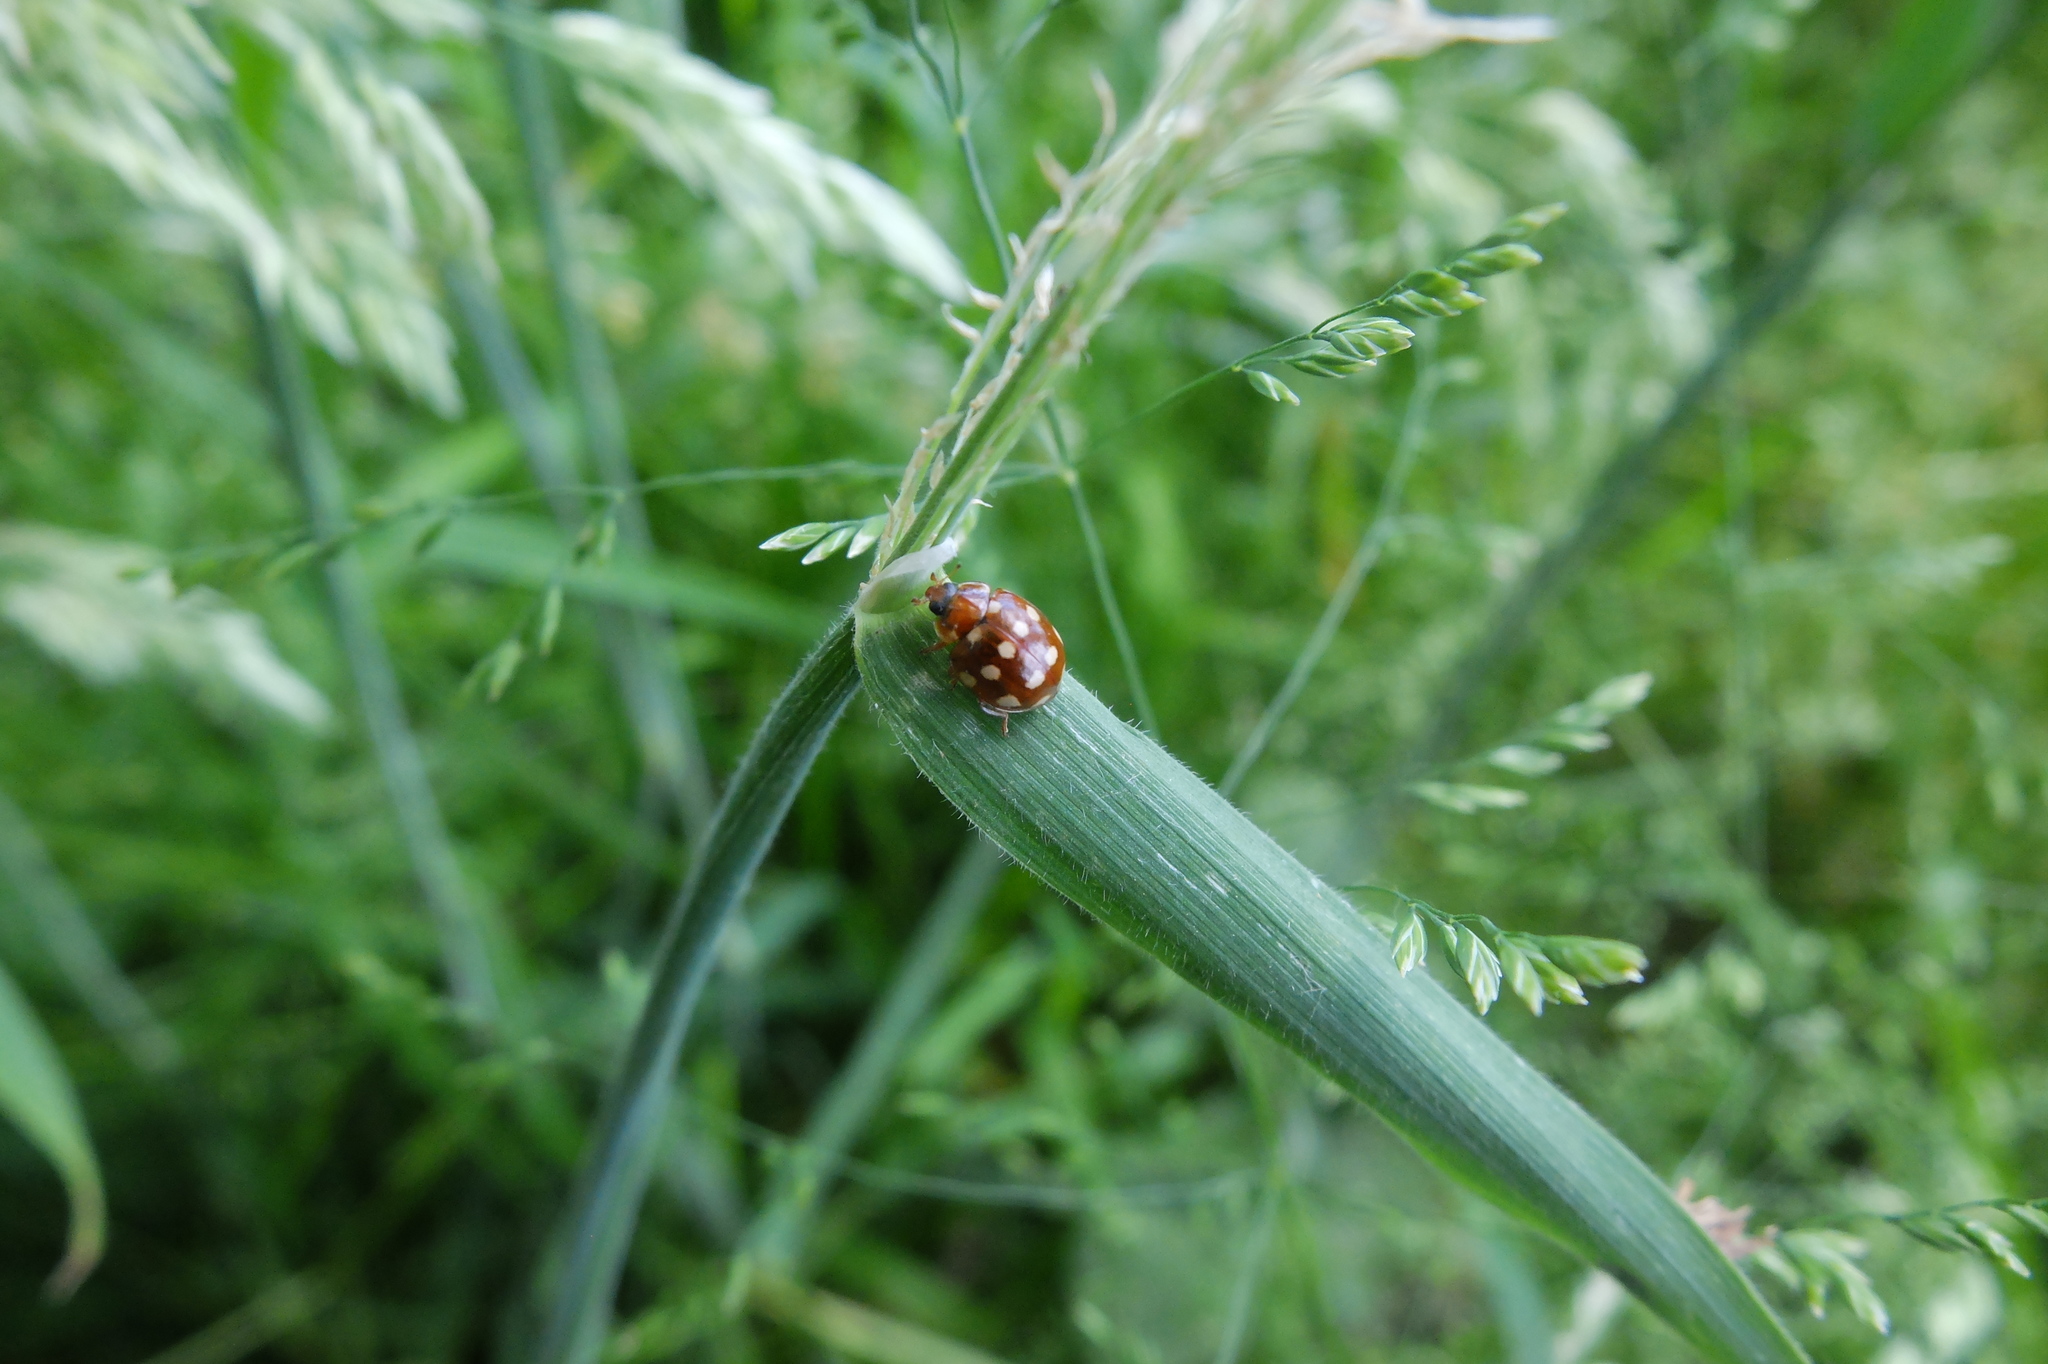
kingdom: Animalia
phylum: Arthropoda
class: Insecta
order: Coleoptera
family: Coccinellidae
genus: Calvia
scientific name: Calvia quatuordecimguttata
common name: Cream-spot ladybird
